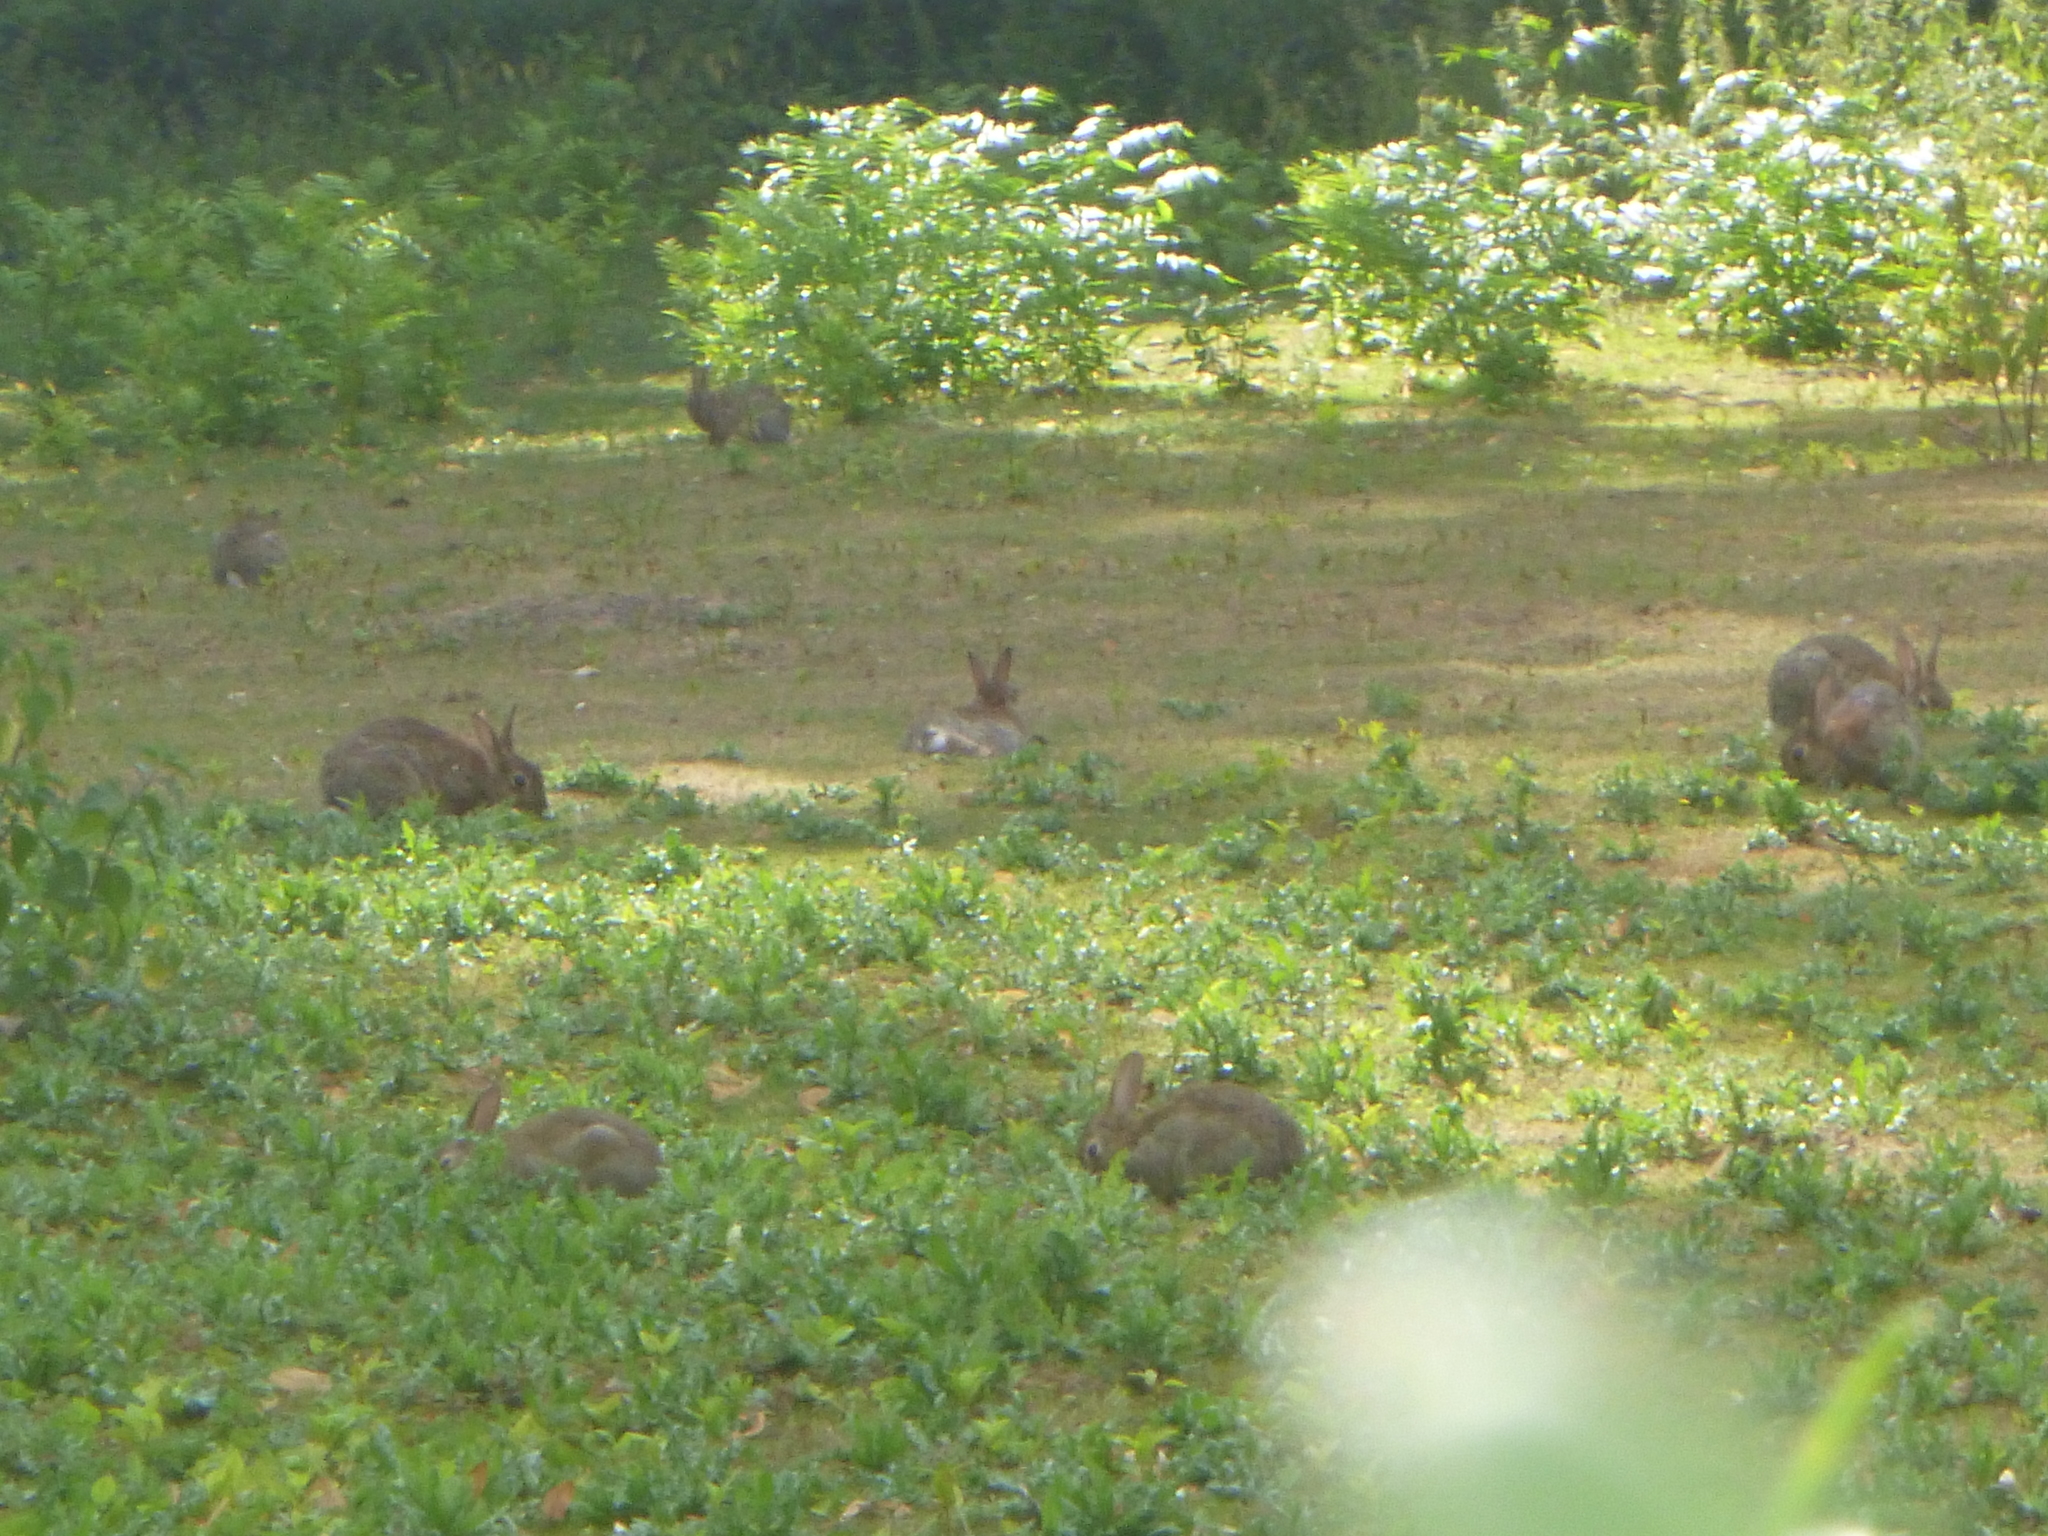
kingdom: Animalia
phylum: Chordata
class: Mammalia
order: Lagomorpha
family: Leporidae
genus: Oryctolagus
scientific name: Oryctolagus cuniculus
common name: European rabbit
